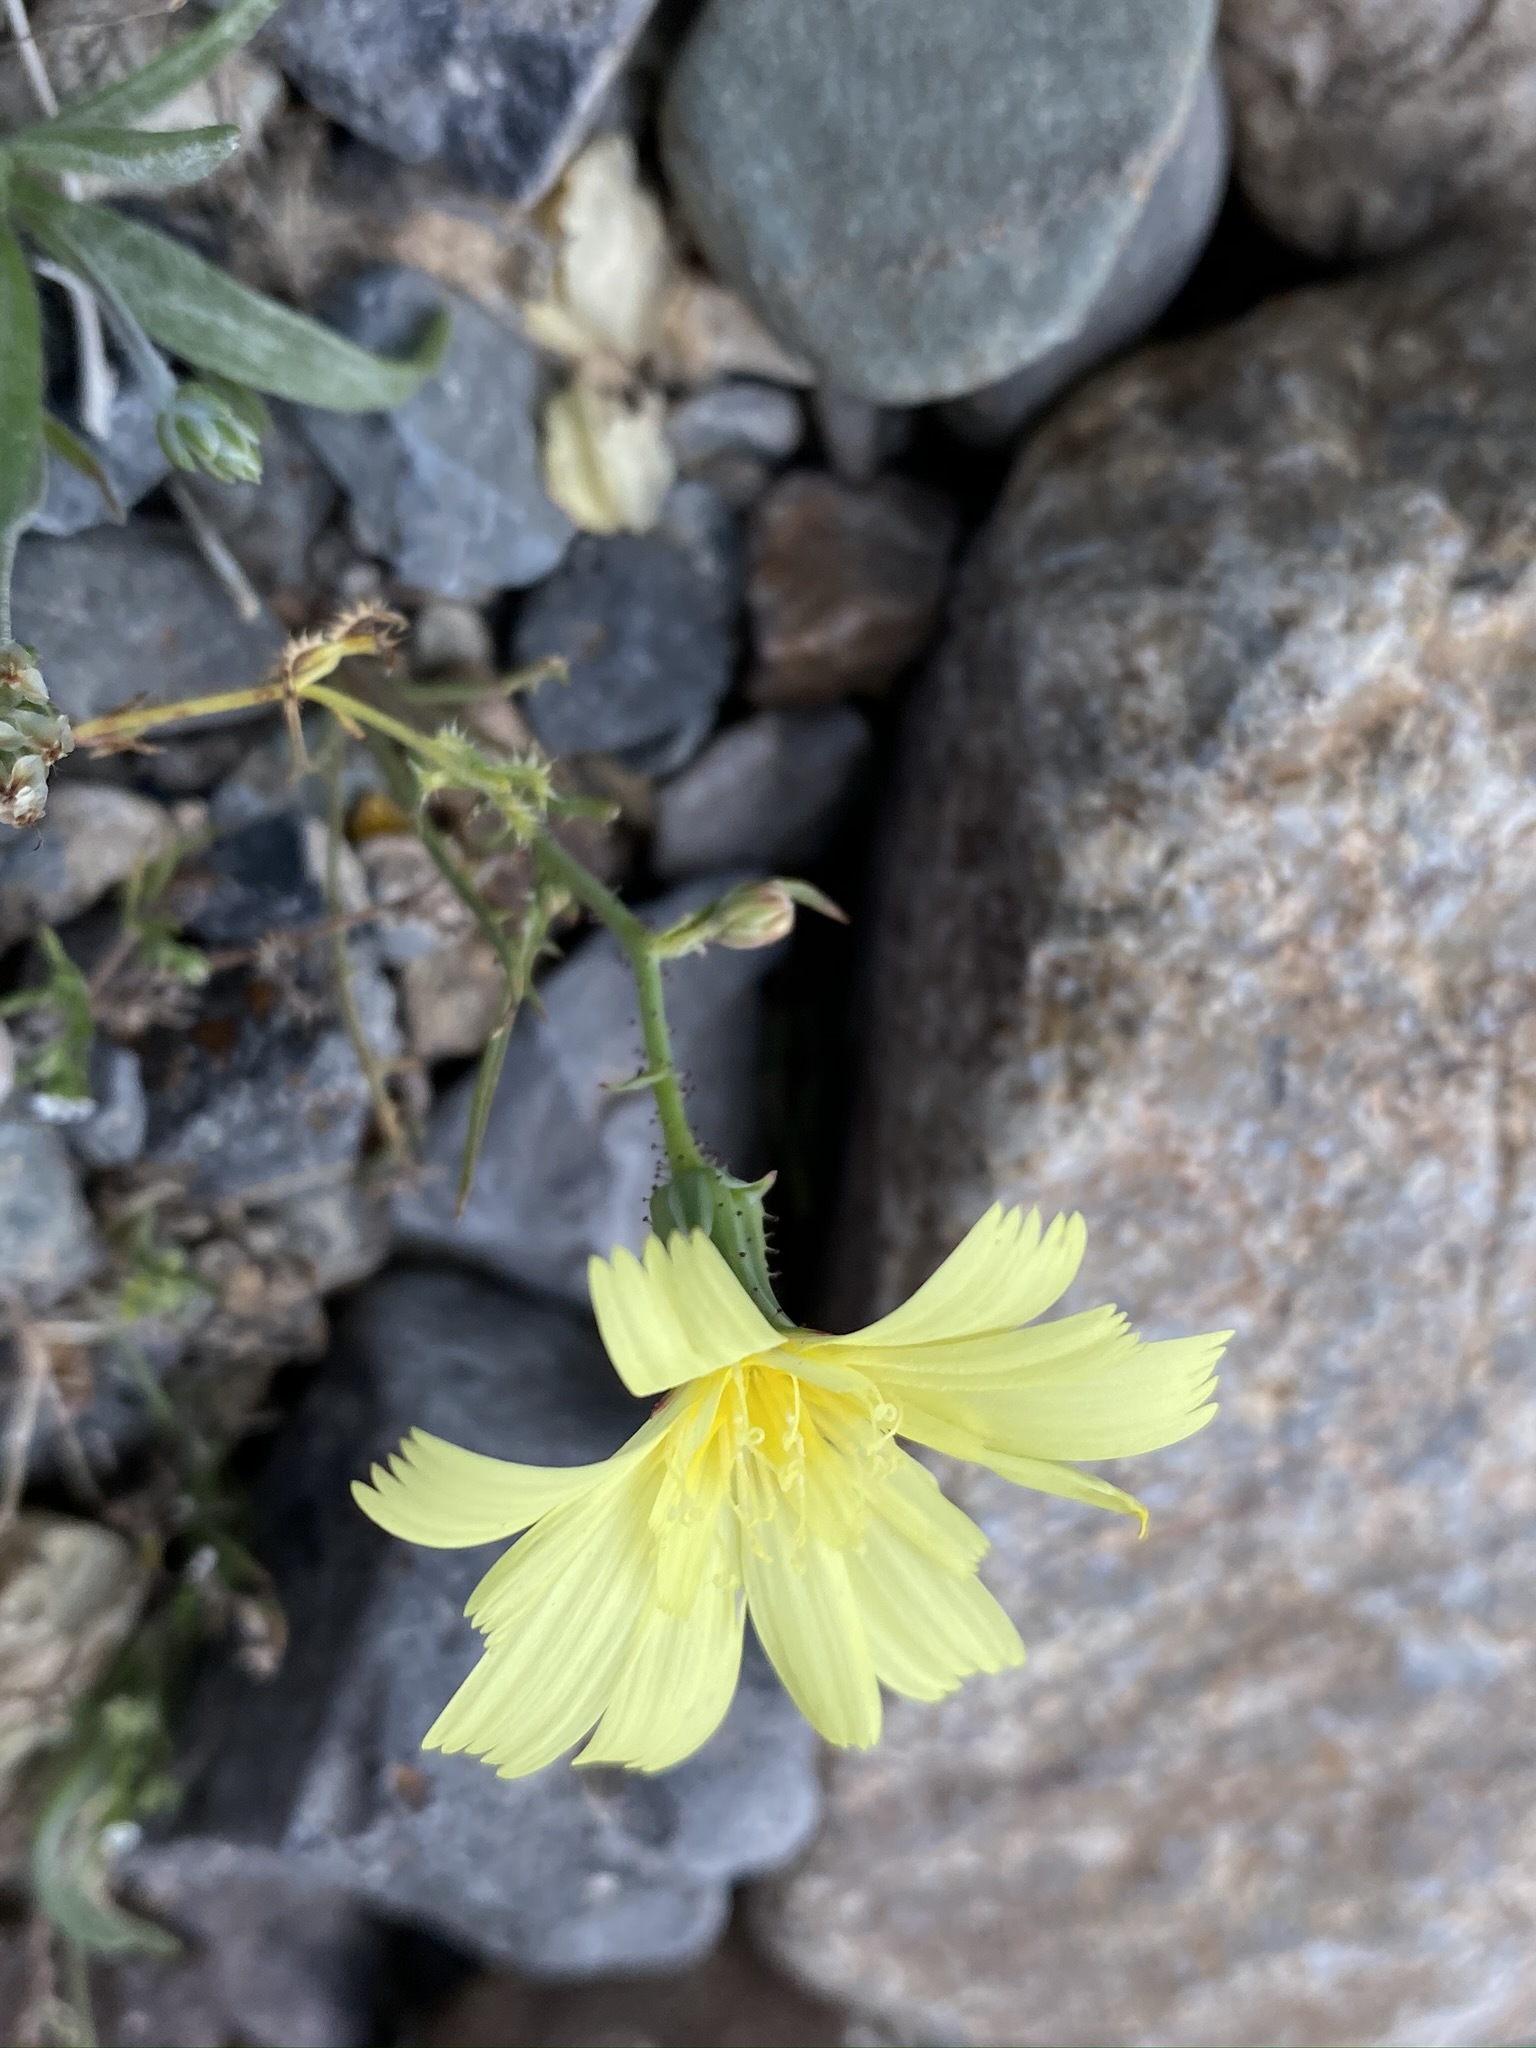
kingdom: Plantae
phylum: Tracheophyta
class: Magnoliopsida
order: Asterales
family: Asteraceae
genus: Calycoseris
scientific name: Calycoseris parryi
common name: Yellow tackstem
